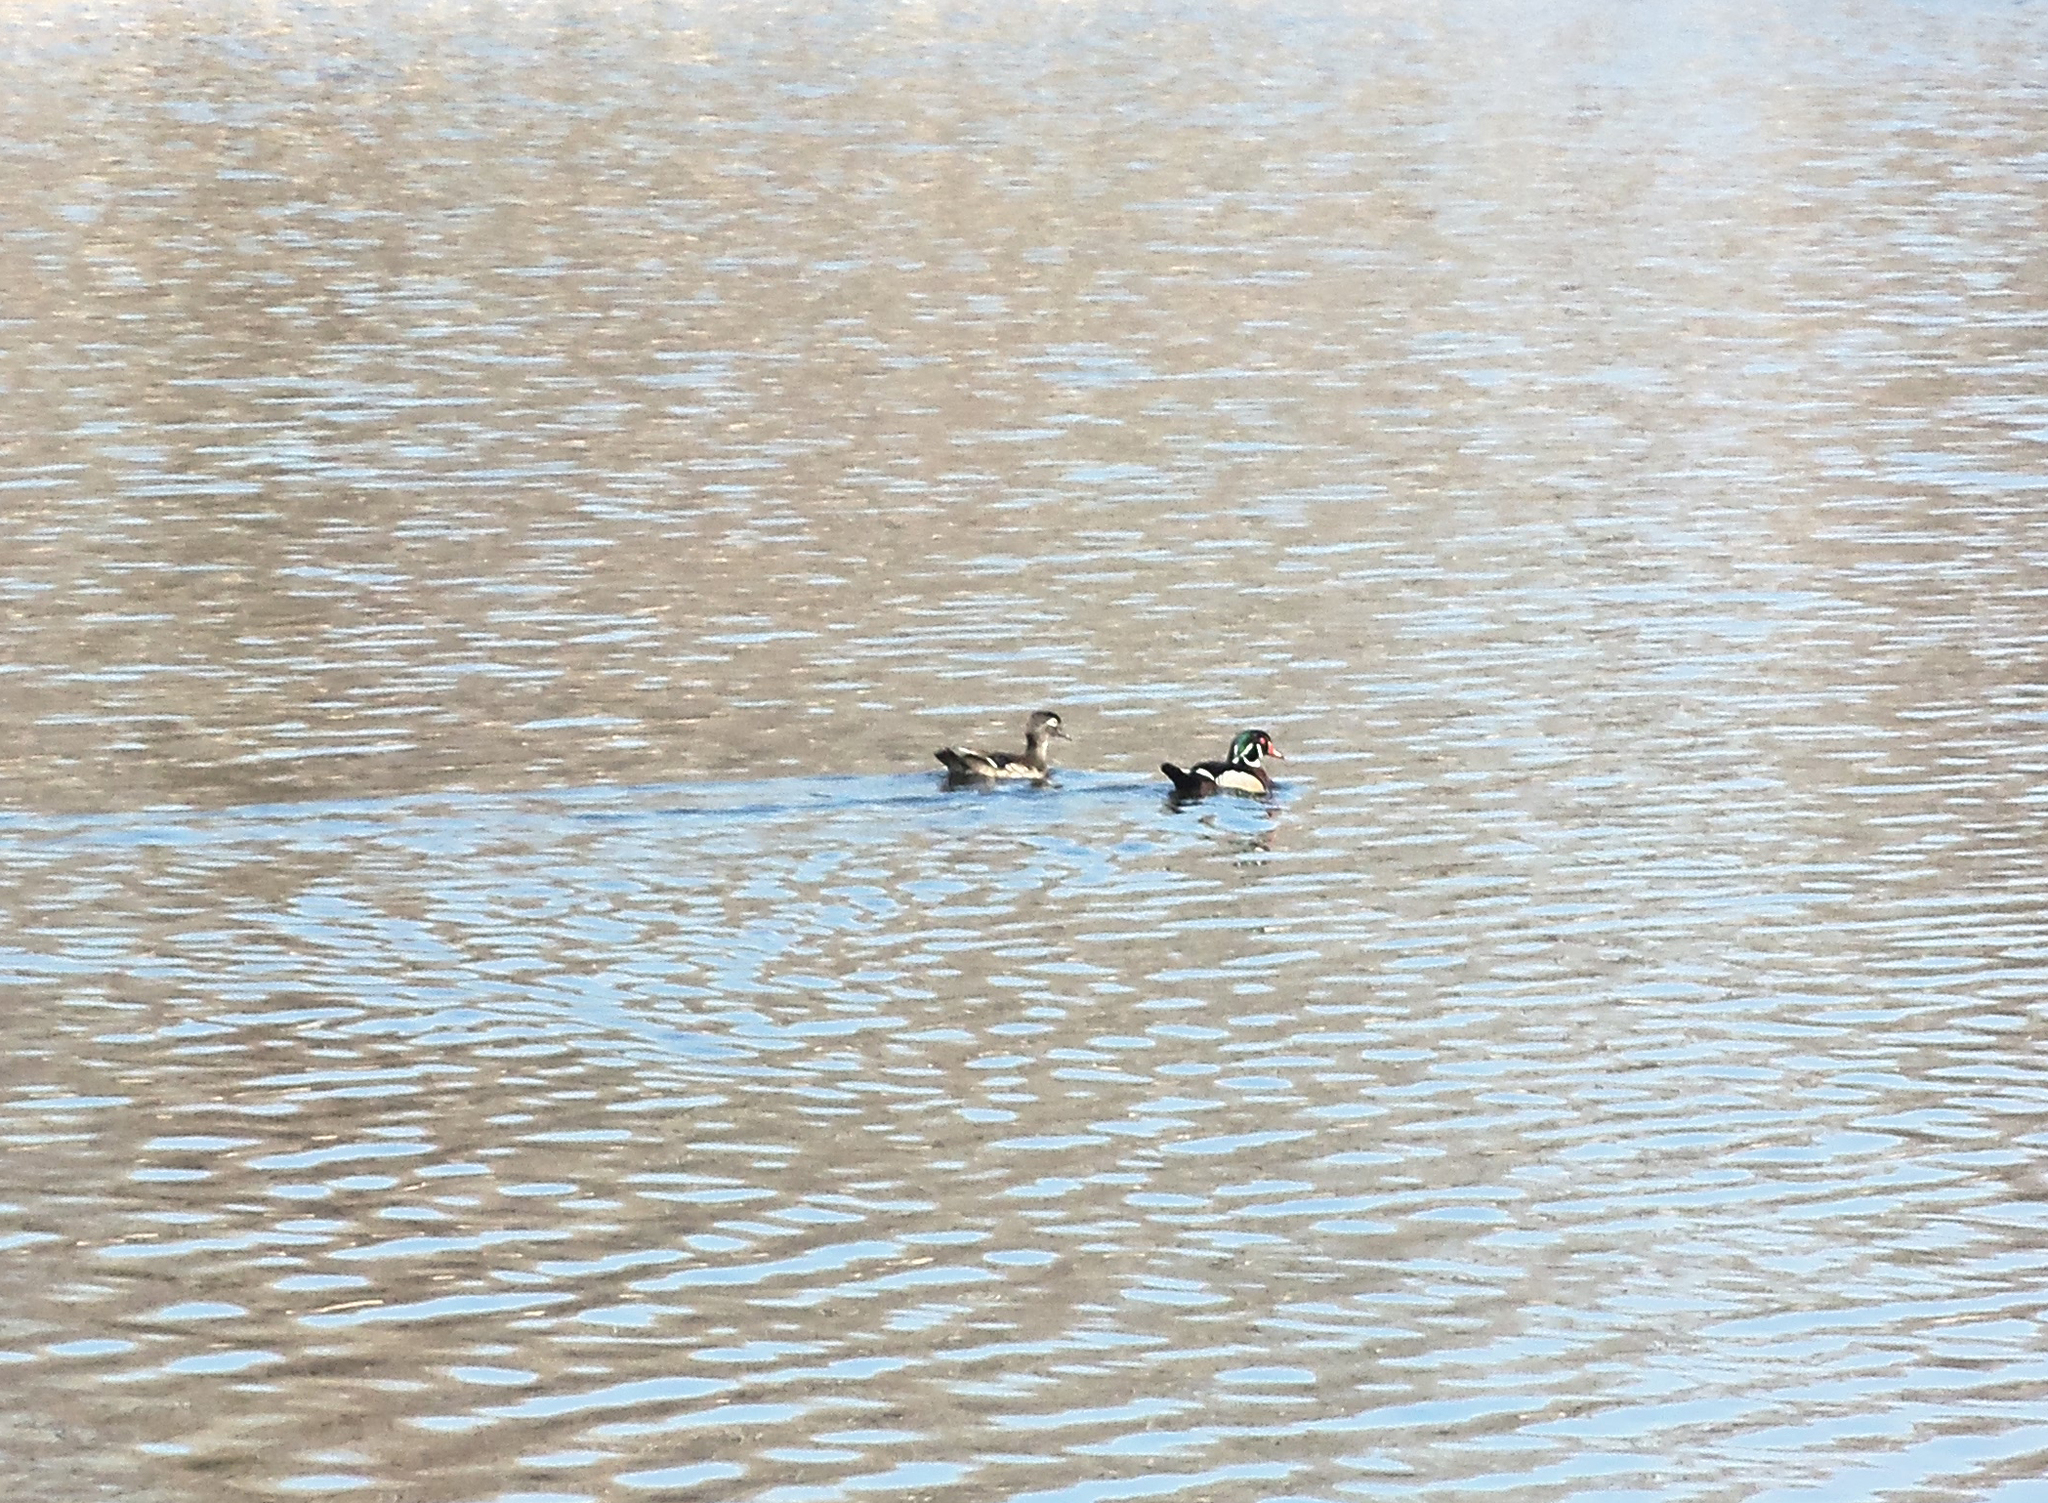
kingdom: Animalia
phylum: Chordata
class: Aves
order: Anseriformes
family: Anatidae
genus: Aix
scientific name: Aix sponsa
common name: Wood duck
